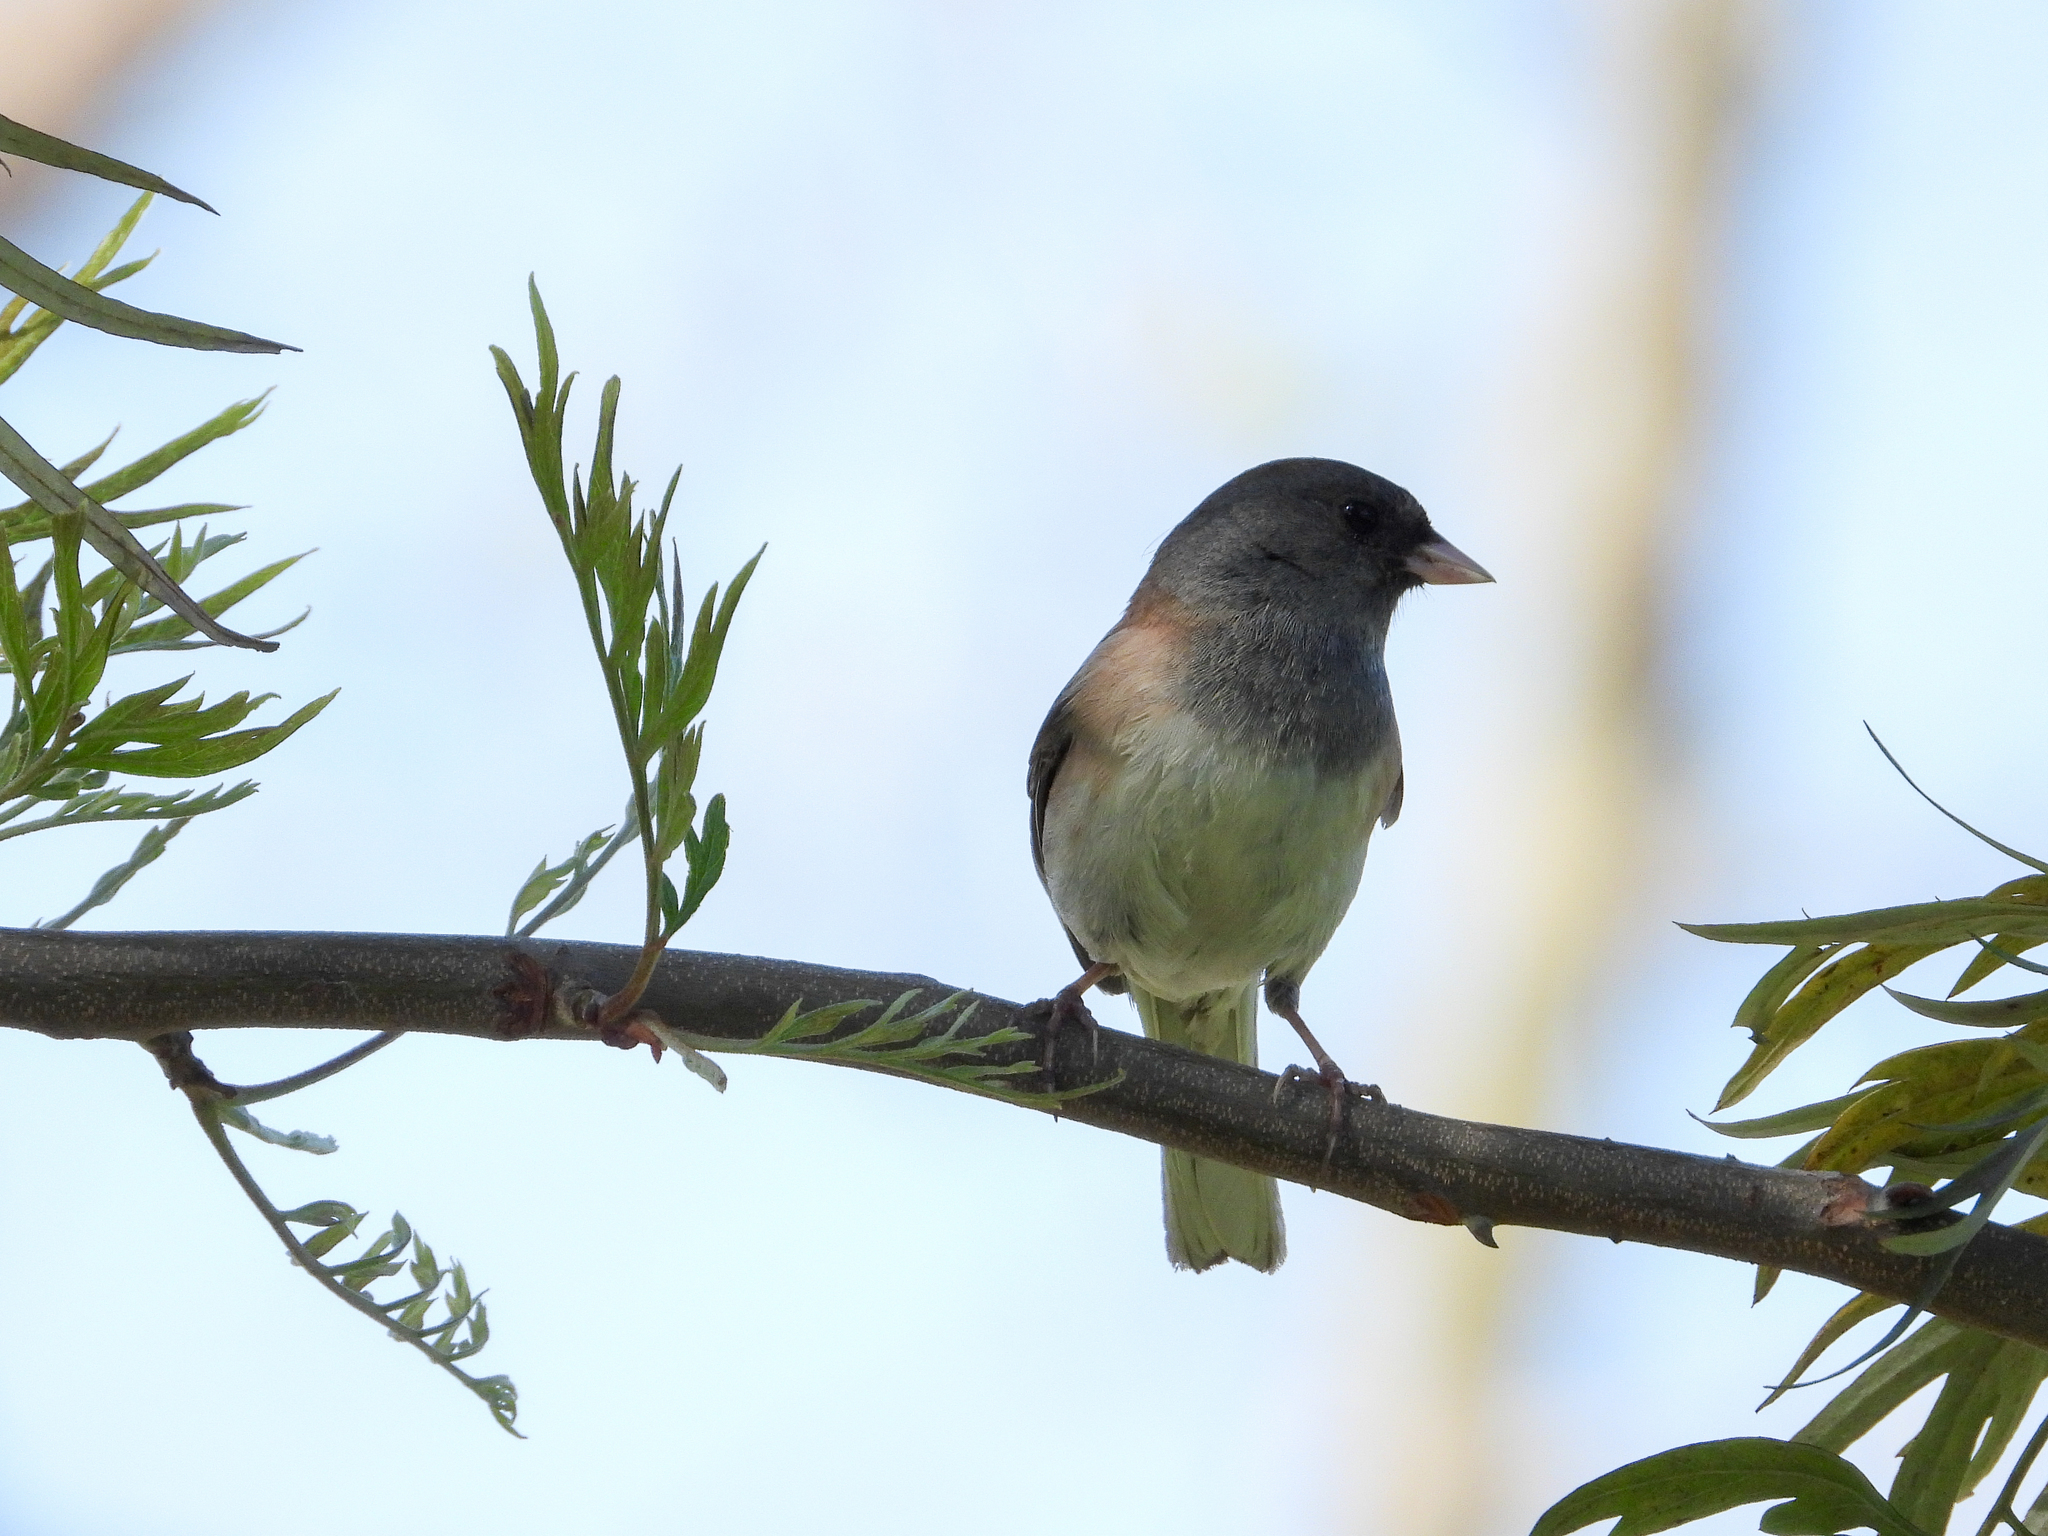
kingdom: Animalia
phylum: Chordata
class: Aves
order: Passeriformes
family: Passerellidae
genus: Junco
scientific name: Junco hyemalis
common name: Dark-eyed junco
